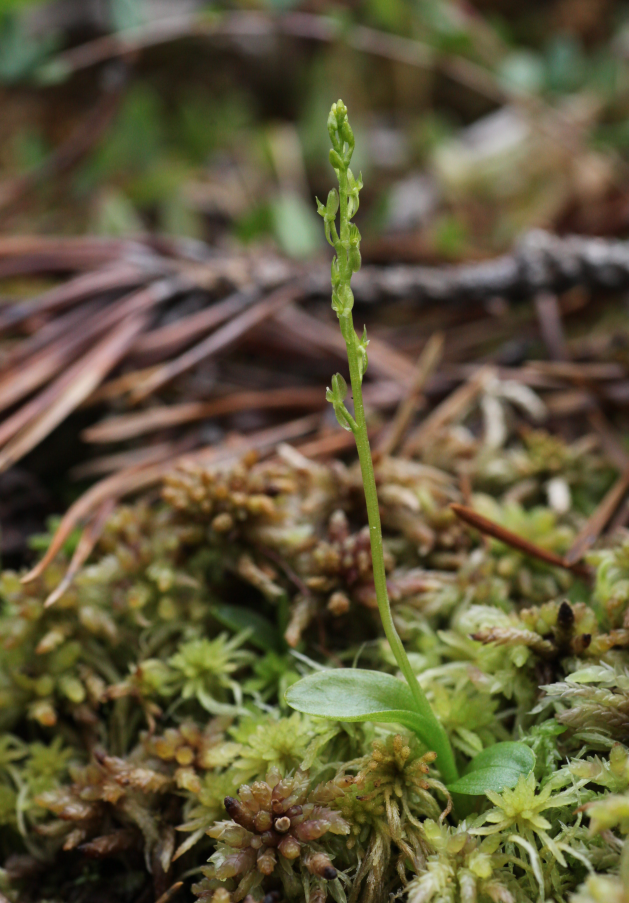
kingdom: Plantae
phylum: Tracheophyta
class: Liliopsida
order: Asparagales
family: Orchidaceae
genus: Hammarbya
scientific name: Hammarbya paludosa
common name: Bog orchid
